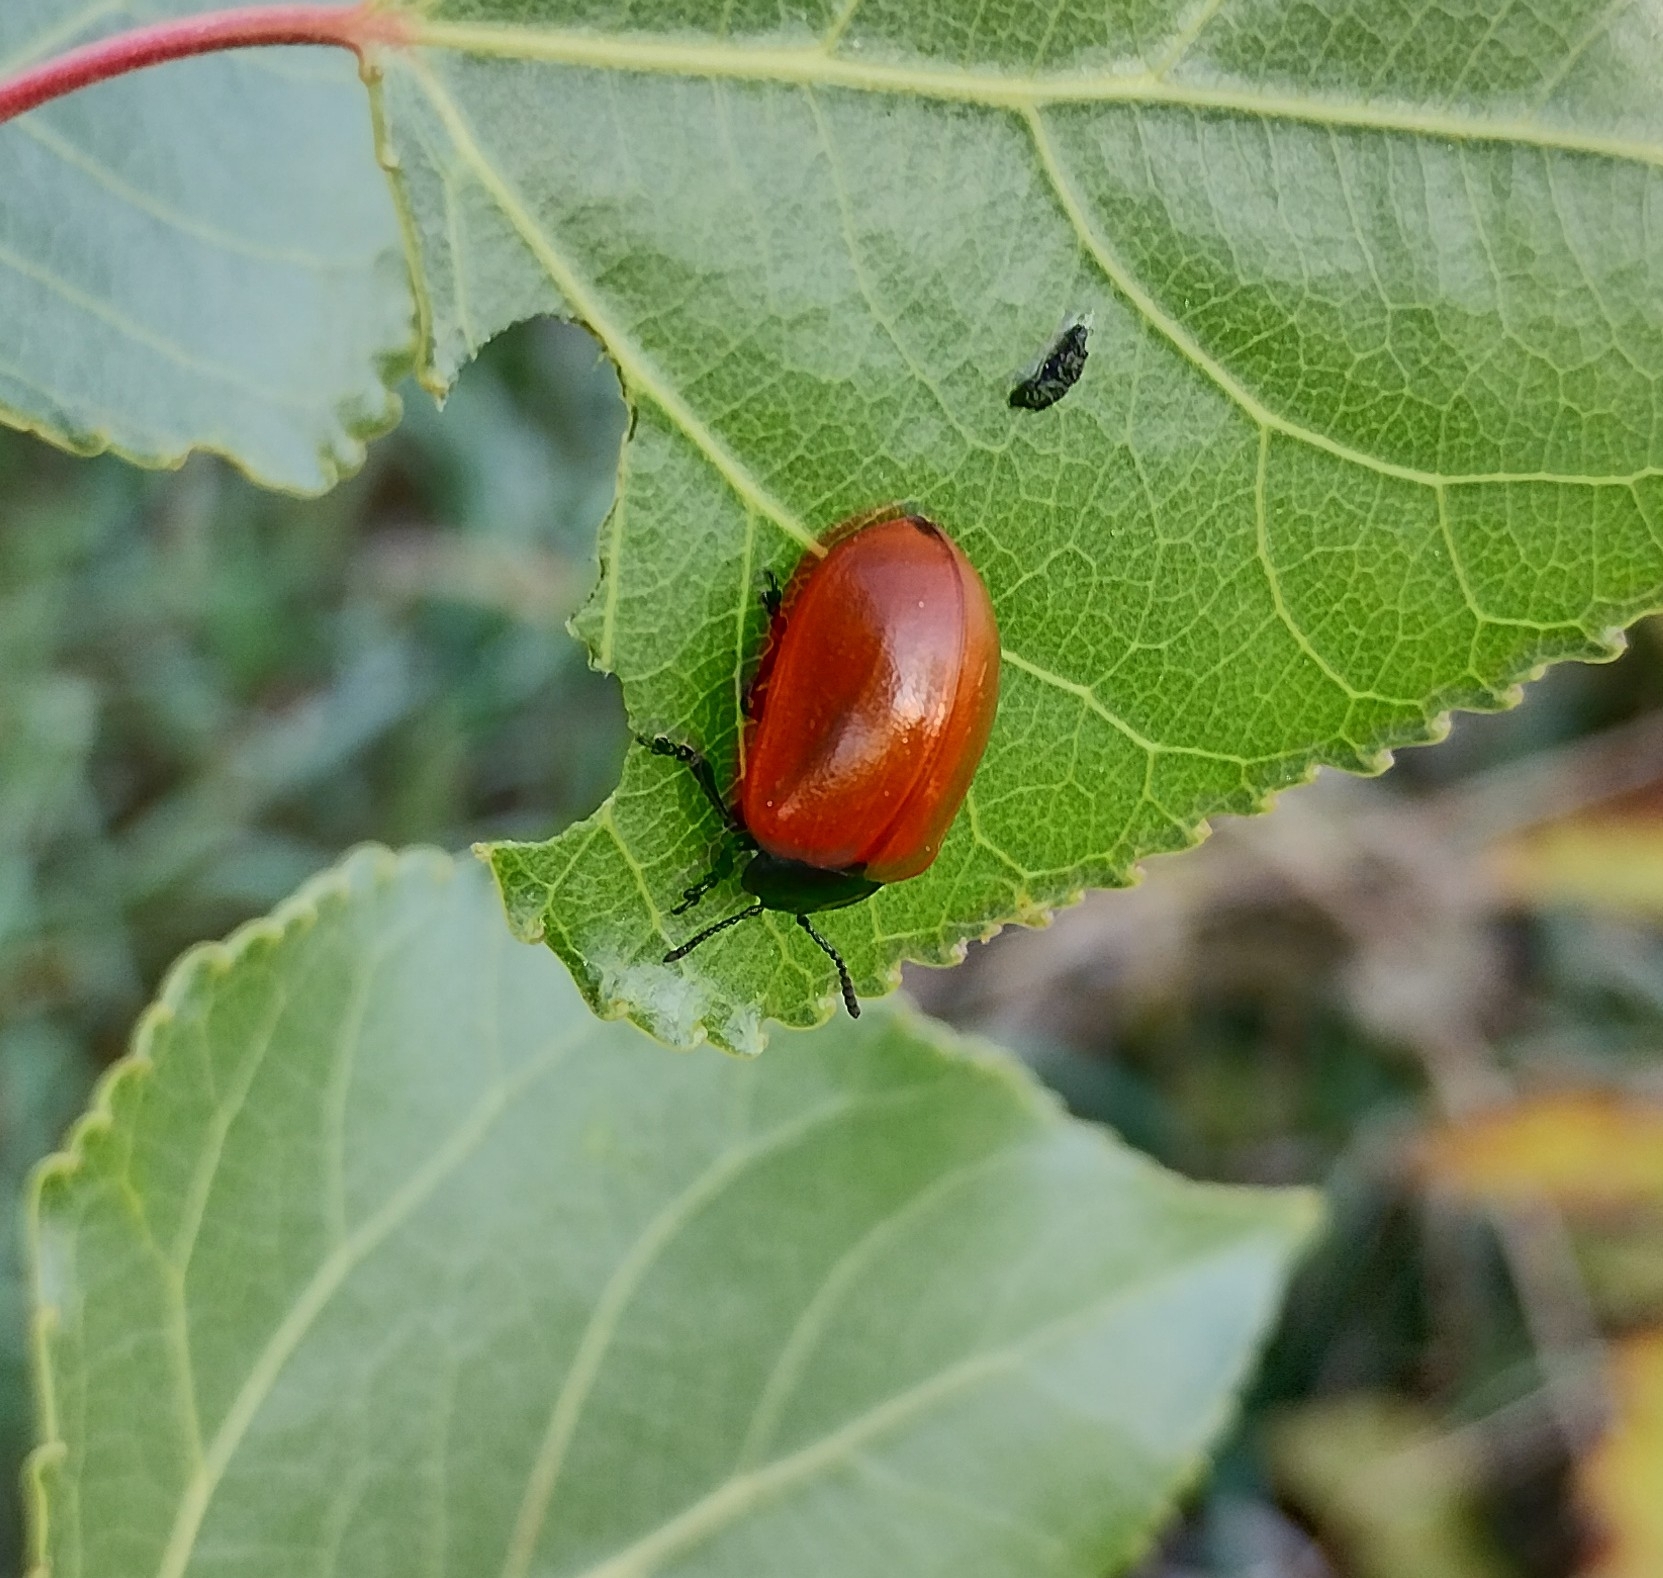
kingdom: Animalia
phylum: Arthropoda
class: Insecta
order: Coleoptera
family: Chrysomelidae
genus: Chrysomela
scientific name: Chrysomela populi
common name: Red poplar leaf beetle
